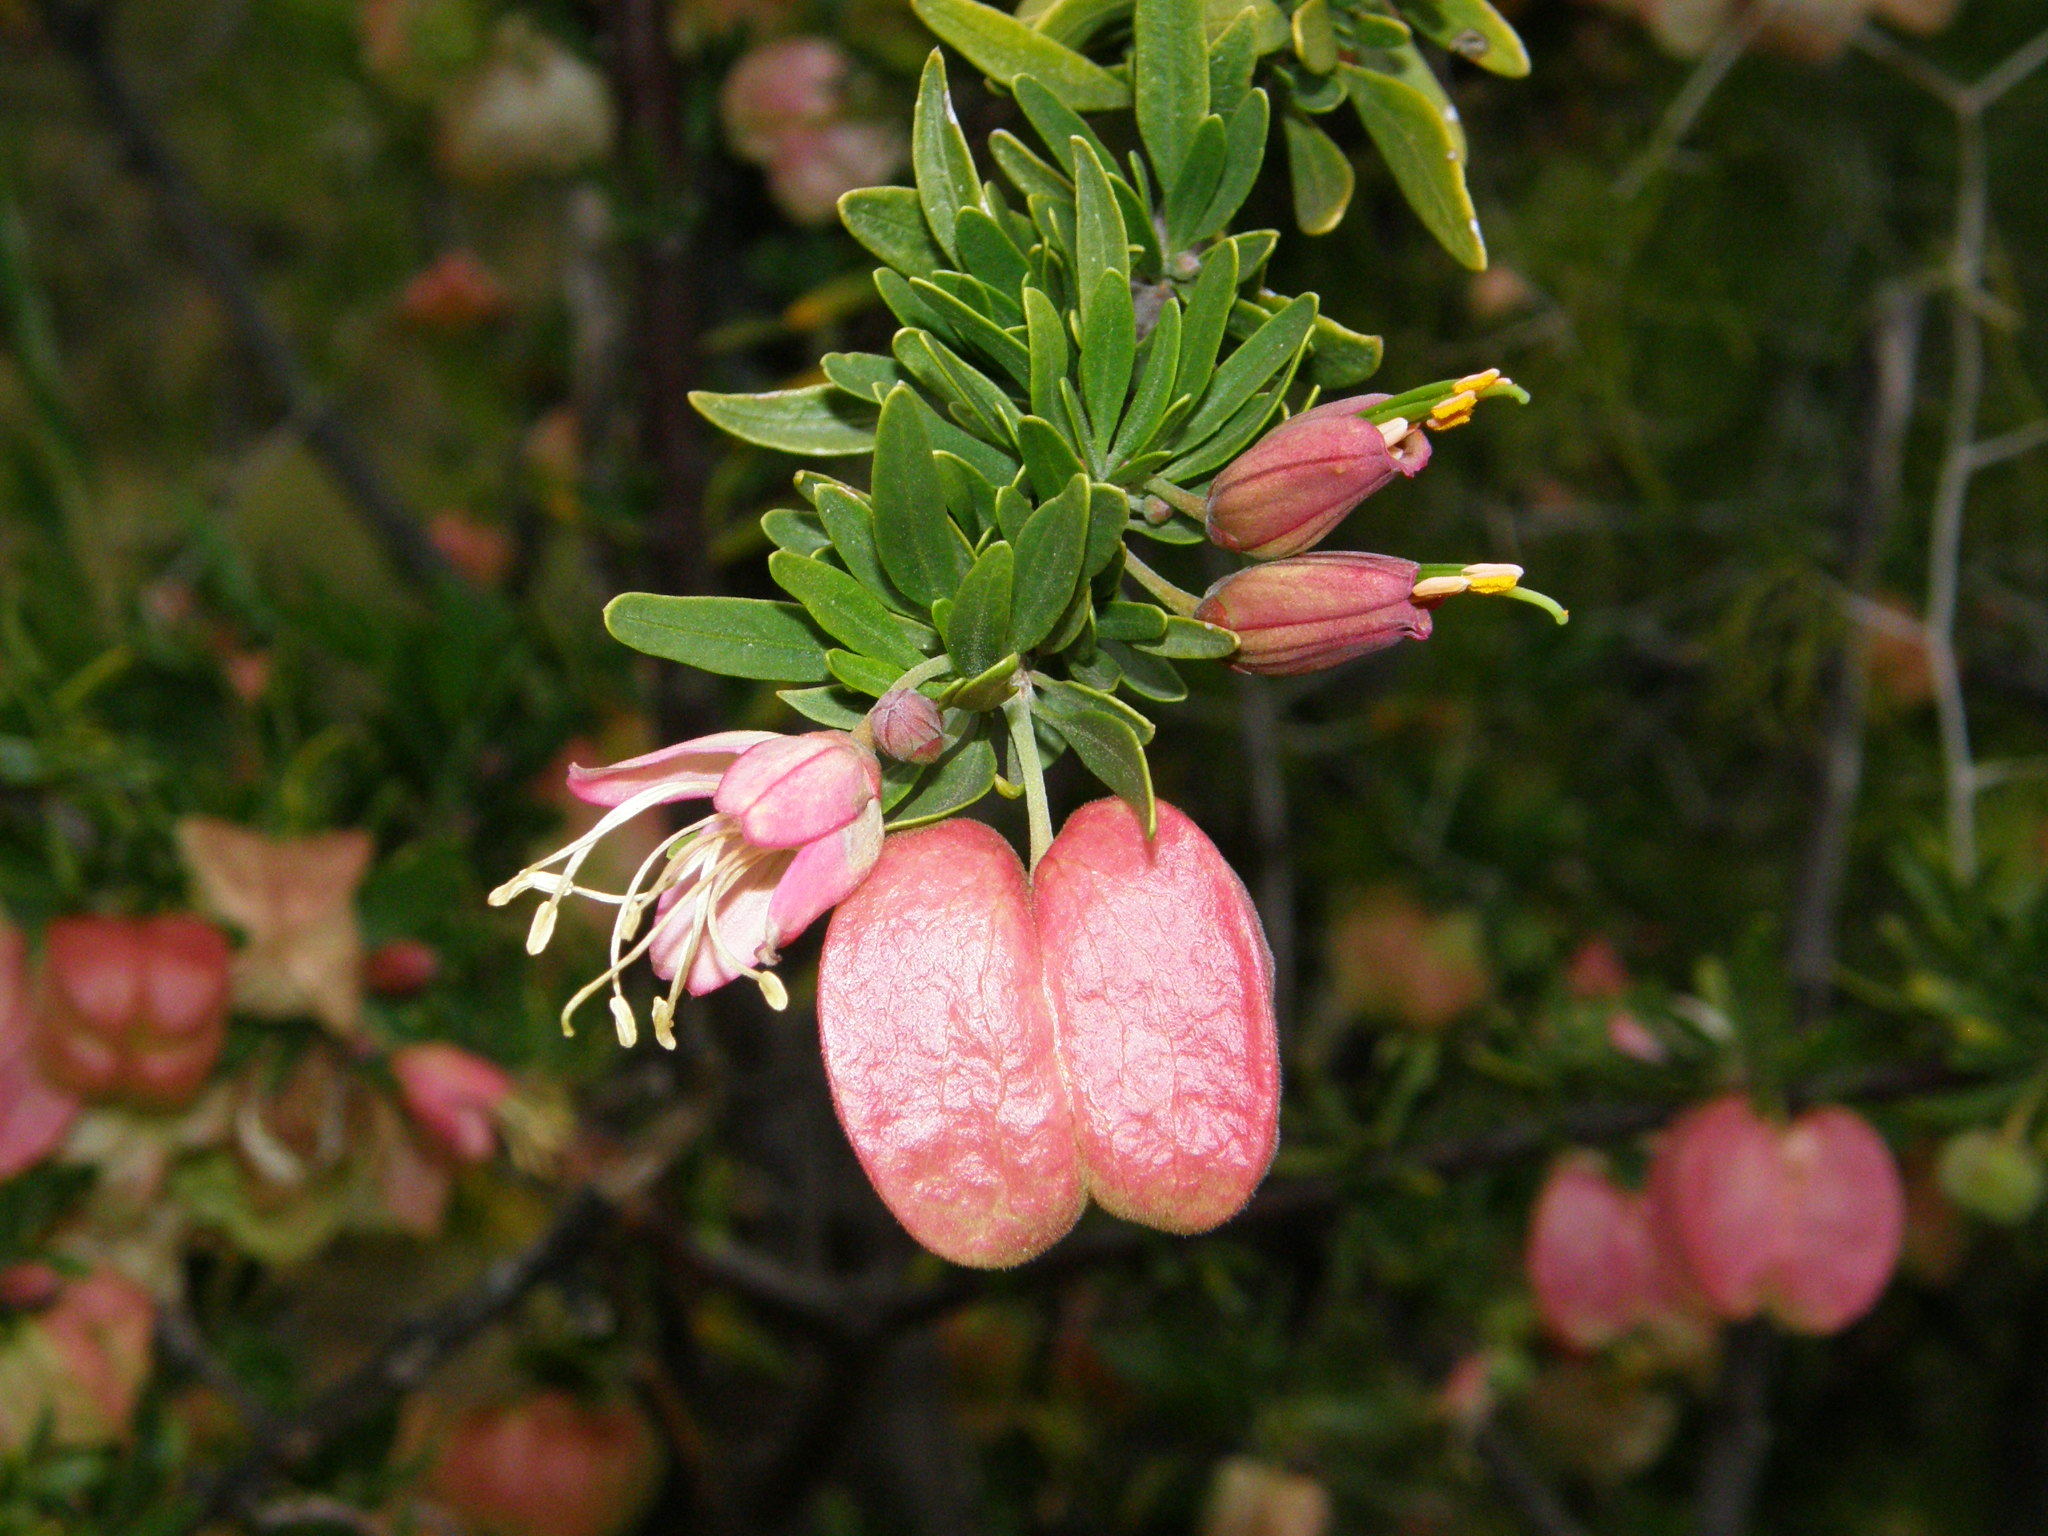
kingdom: Plantae
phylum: Tracheophyta
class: Magnoliopsida
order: Sapindales
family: Meliaceae
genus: Nymania
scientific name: Nymania capensis
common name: Chinese lantern tree
